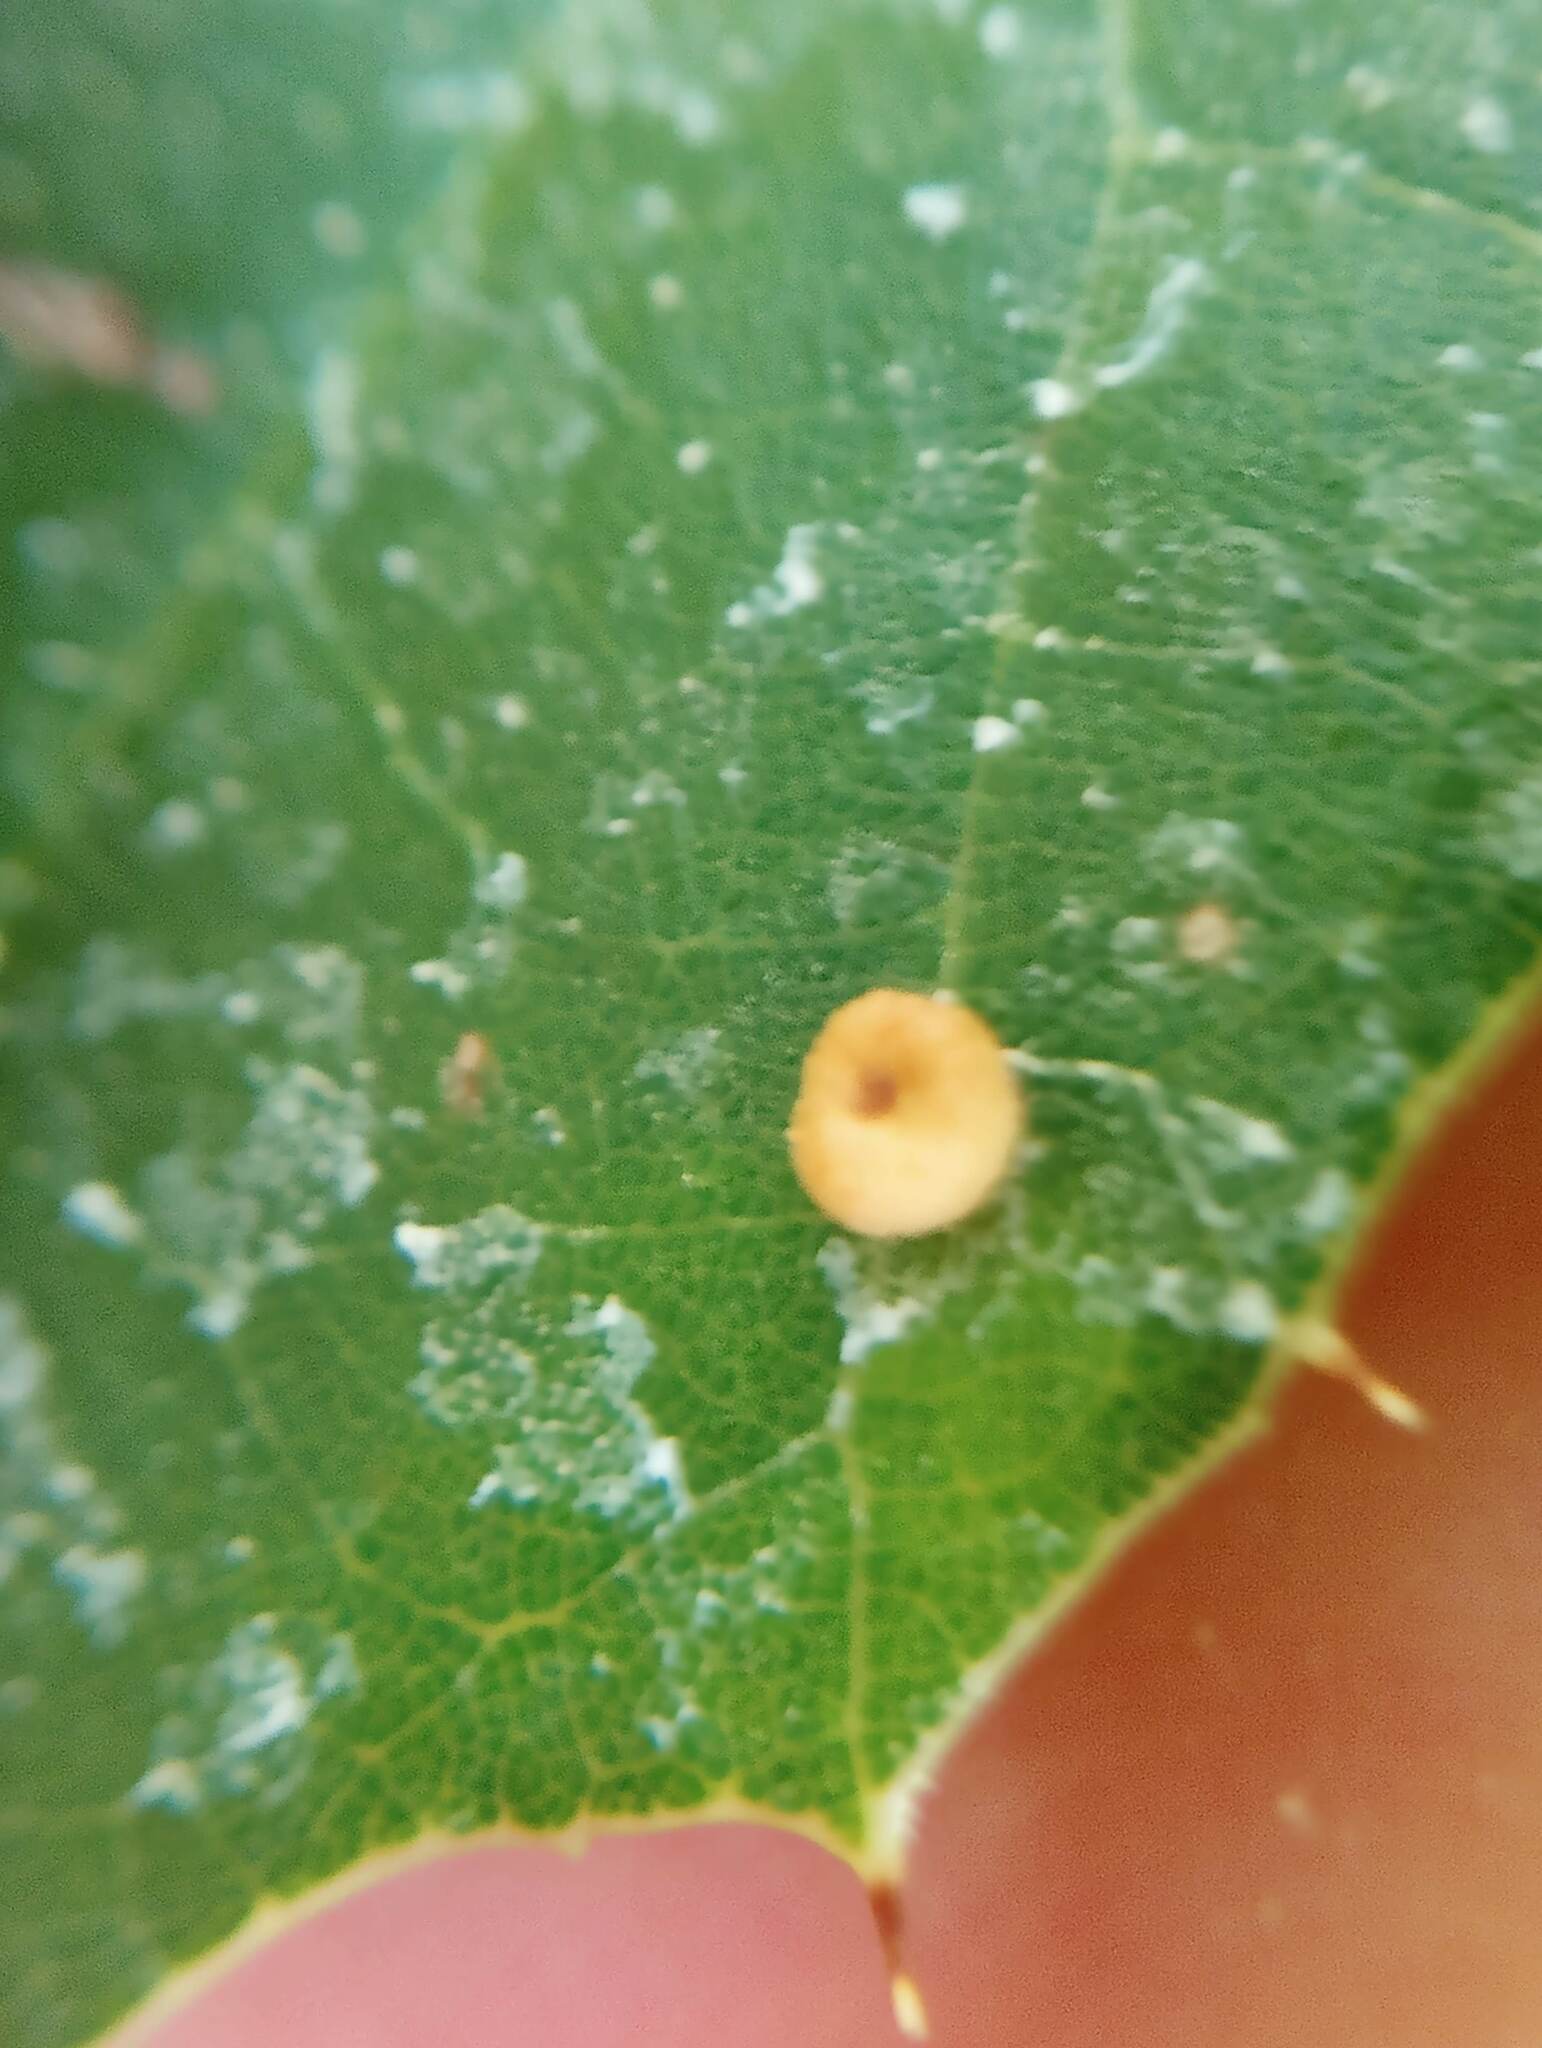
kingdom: Animalia
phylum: Arthropoda
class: Insecta
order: Hymenoptera
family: Cynipidae
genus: Dryocosmus
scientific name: Dryocosmus
